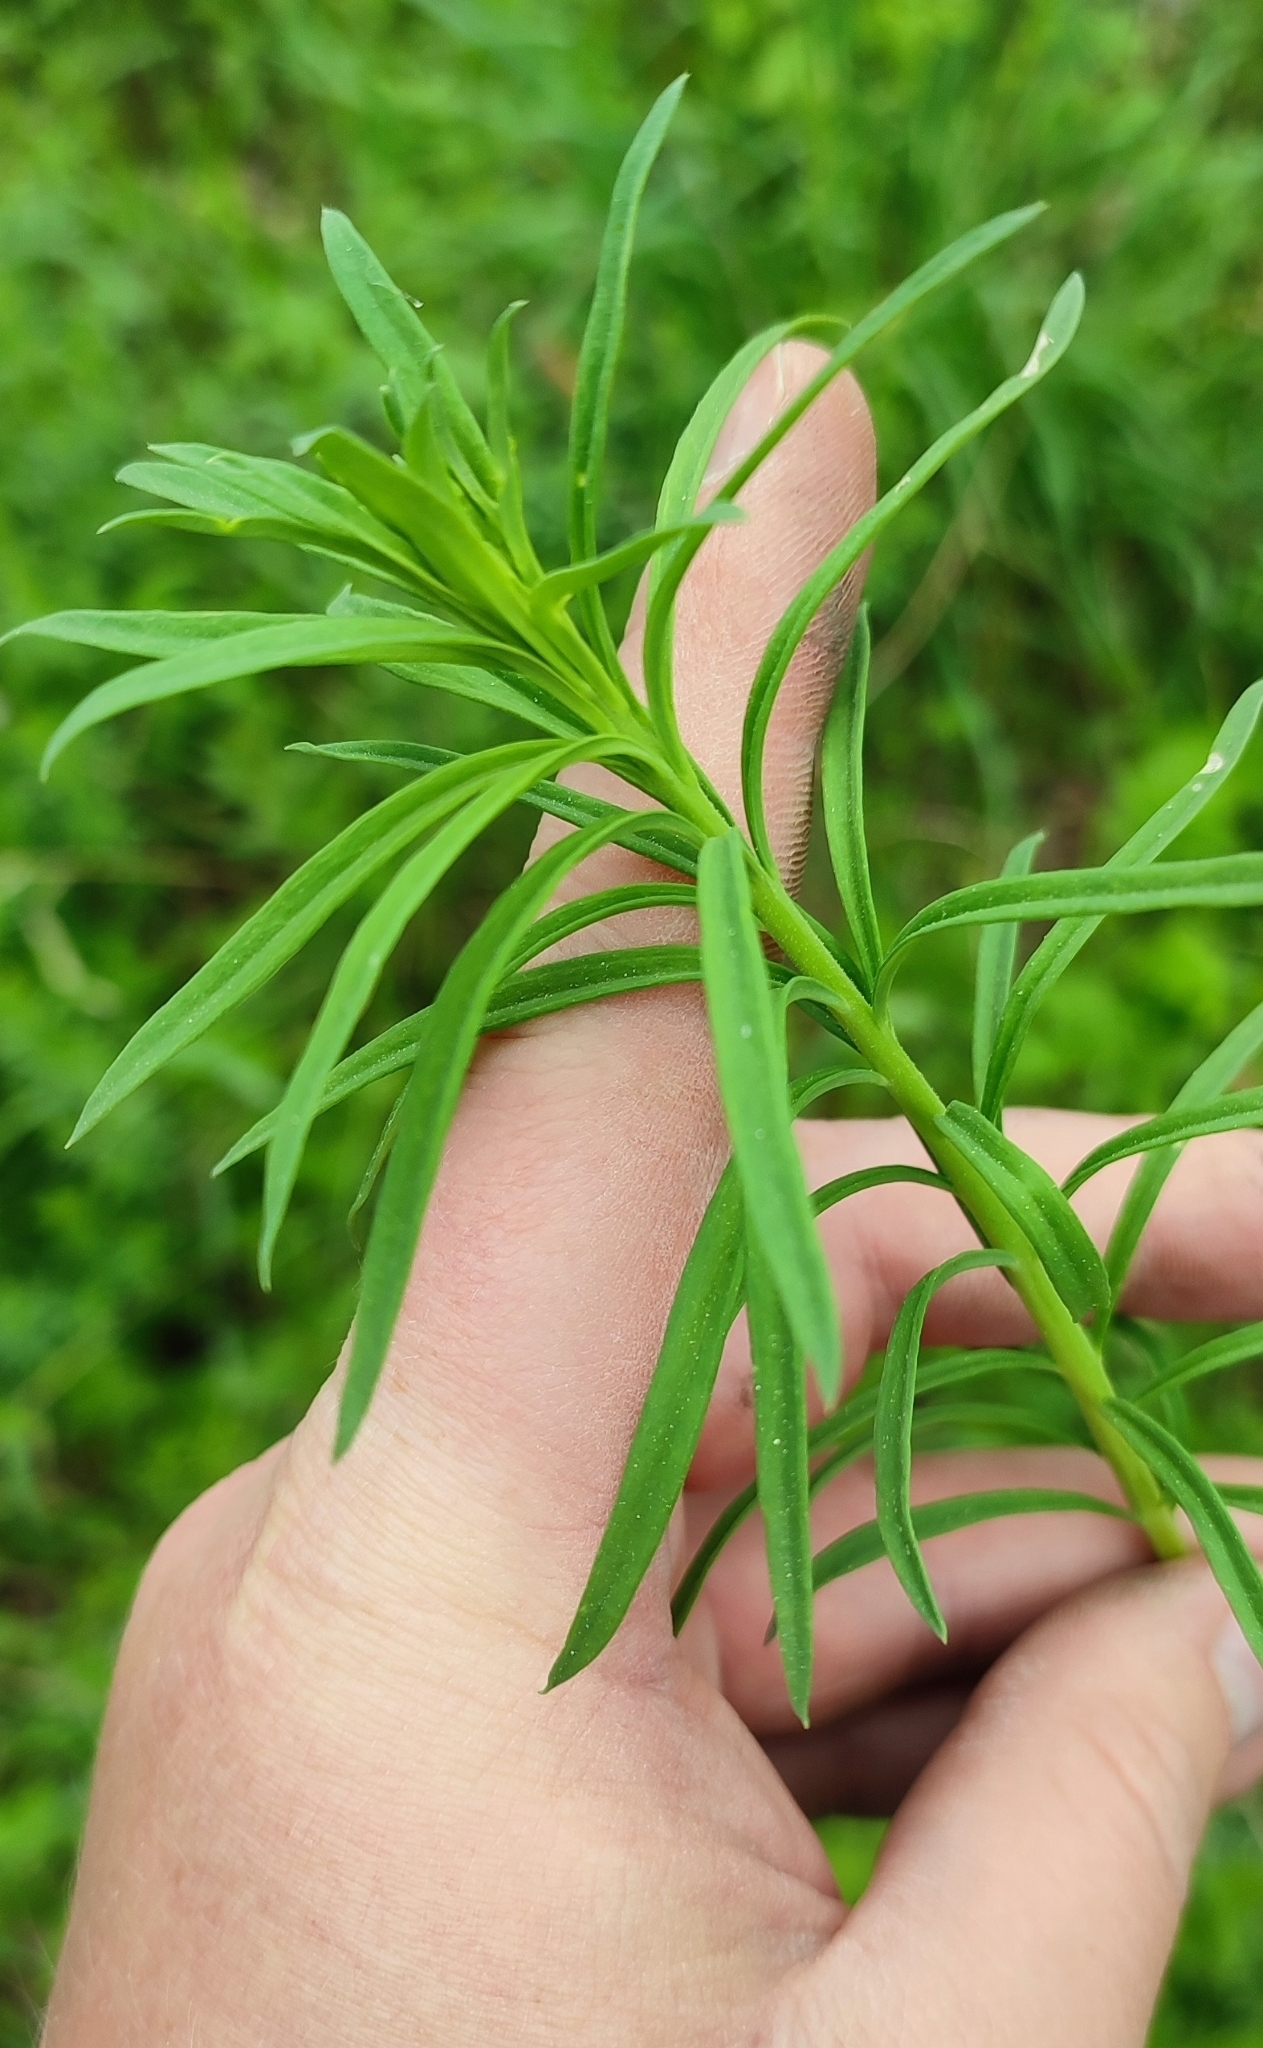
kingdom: Plantae
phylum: Tracheophyta
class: Magnoliopsida
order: Lamiales
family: Plantaginaceae
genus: Linaria
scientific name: Linaria vulgaris
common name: Butter and eggs
